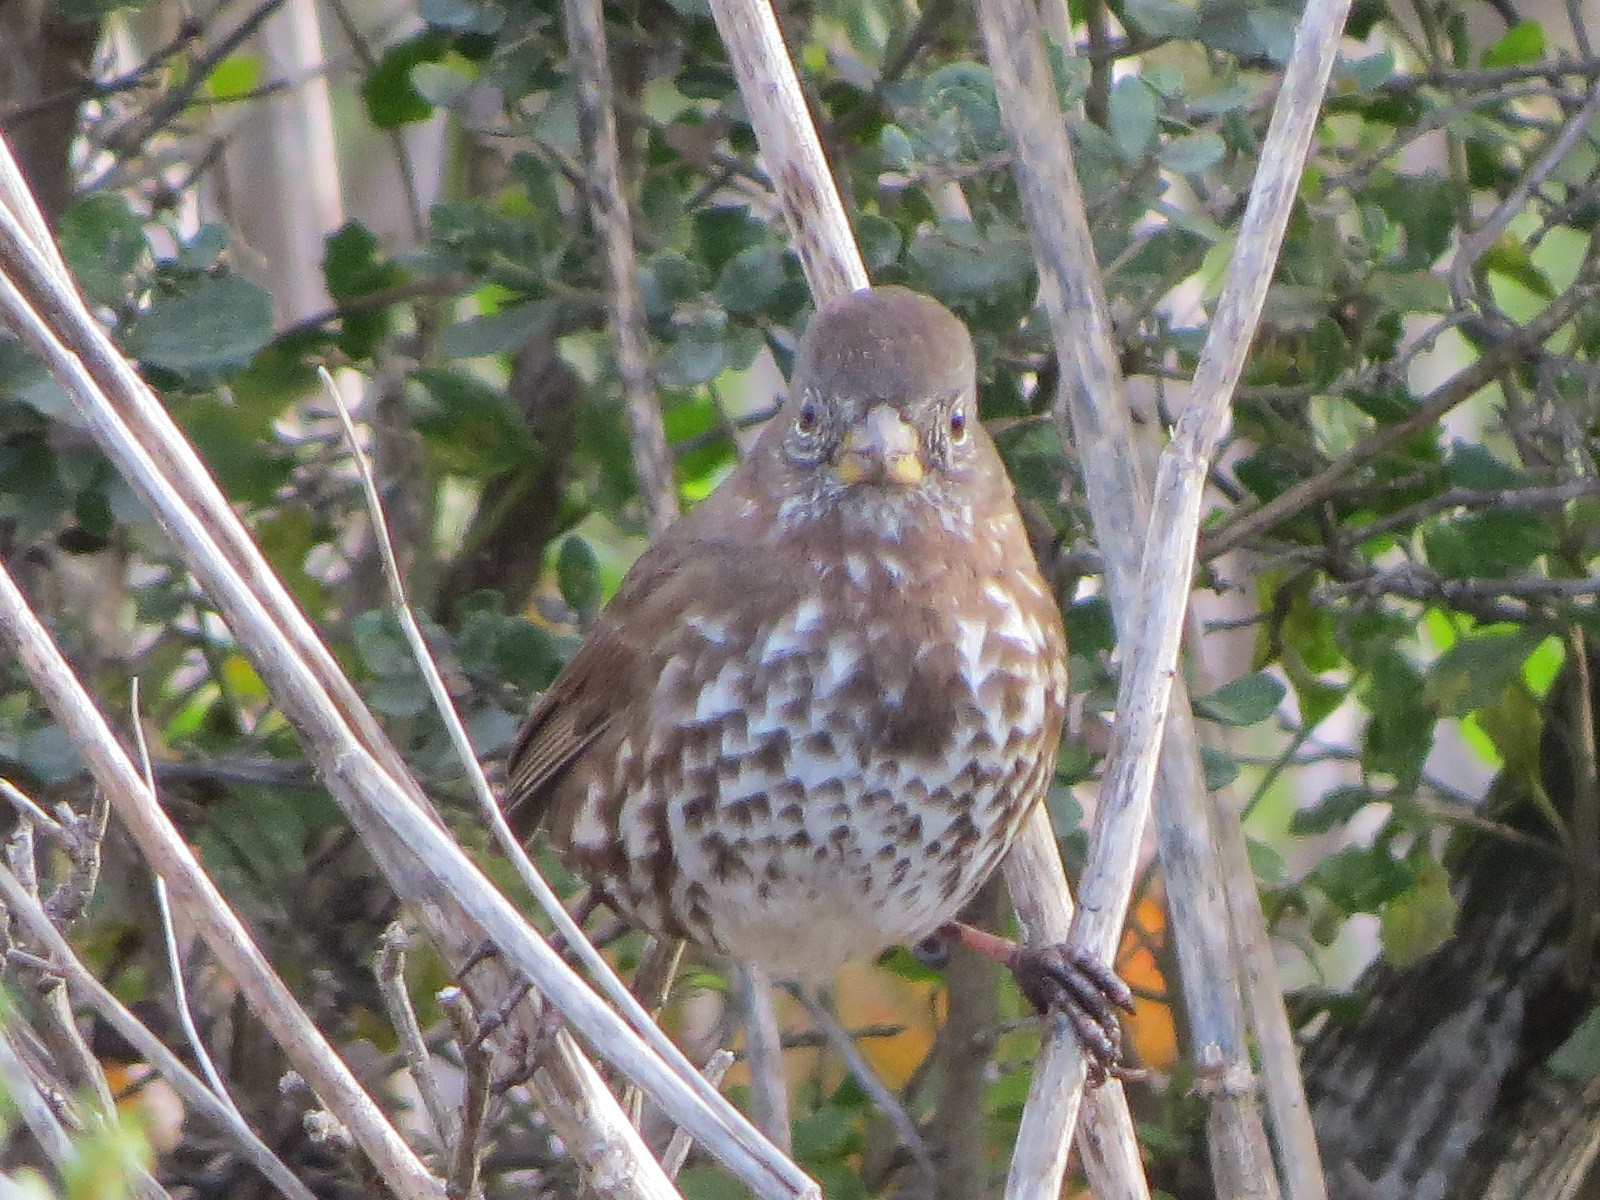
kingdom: Animalia
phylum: Chordata
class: Aves
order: Passeriformes
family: Passerellidae
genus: Passerella
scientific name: Passerella iliaca
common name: Fox sparrow
